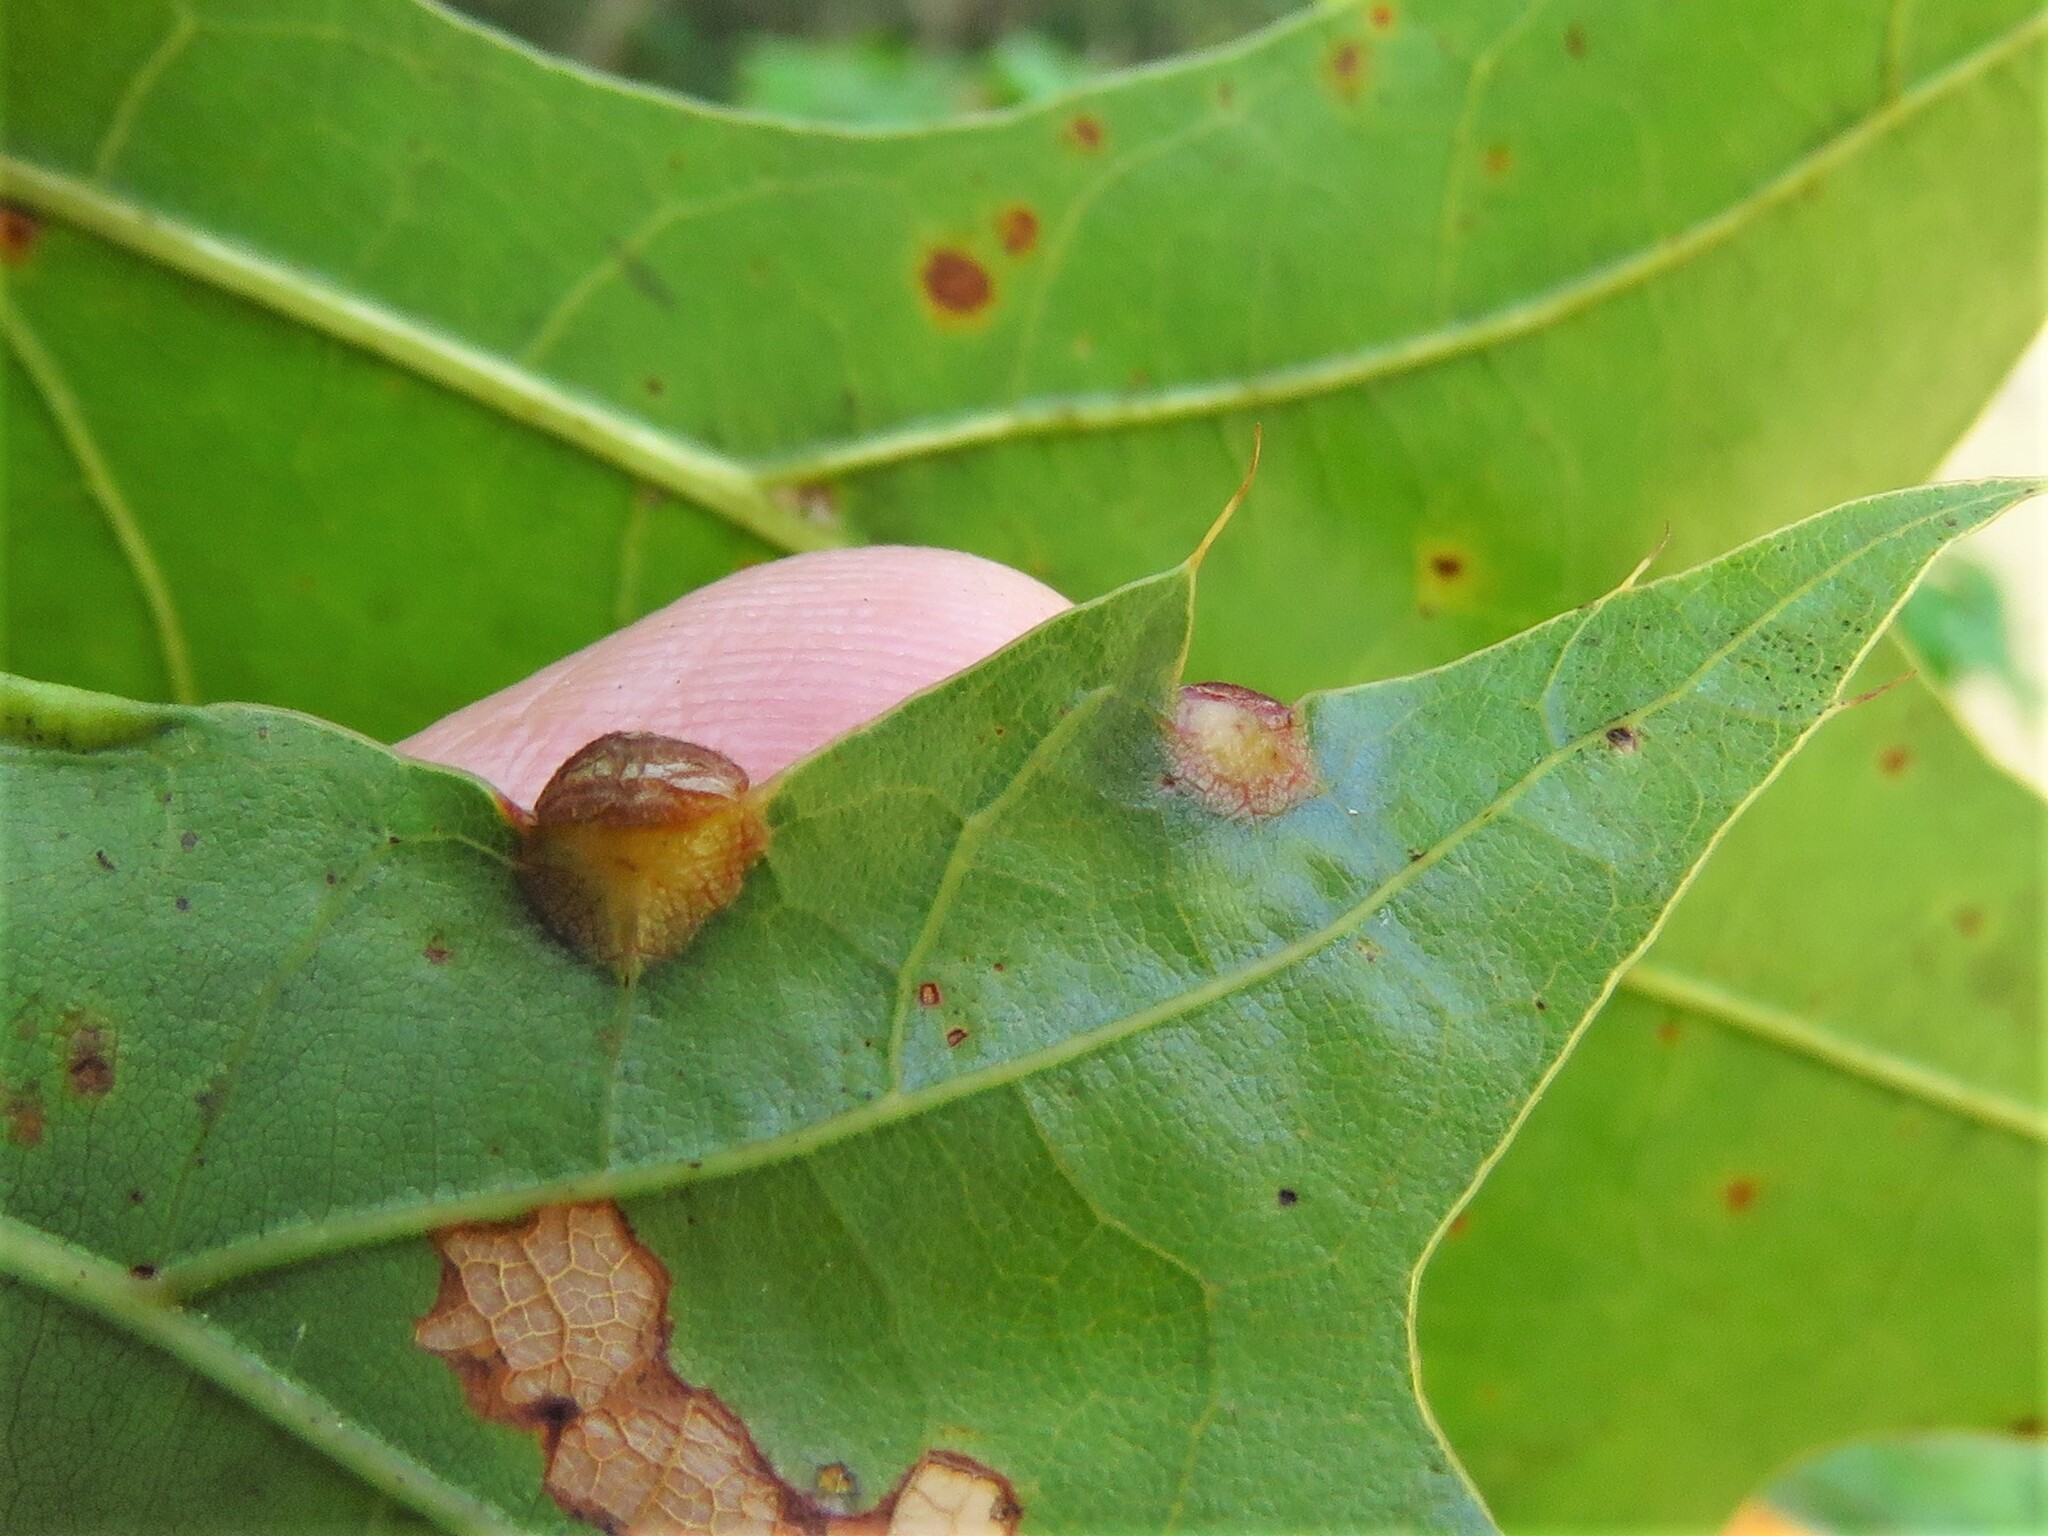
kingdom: Animalia
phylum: Arthropoda
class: Insecta
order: Diptera
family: Cecidomyiidae
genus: Polystepha
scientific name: Polystepha pilulae
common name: Oak leaf gall midge
